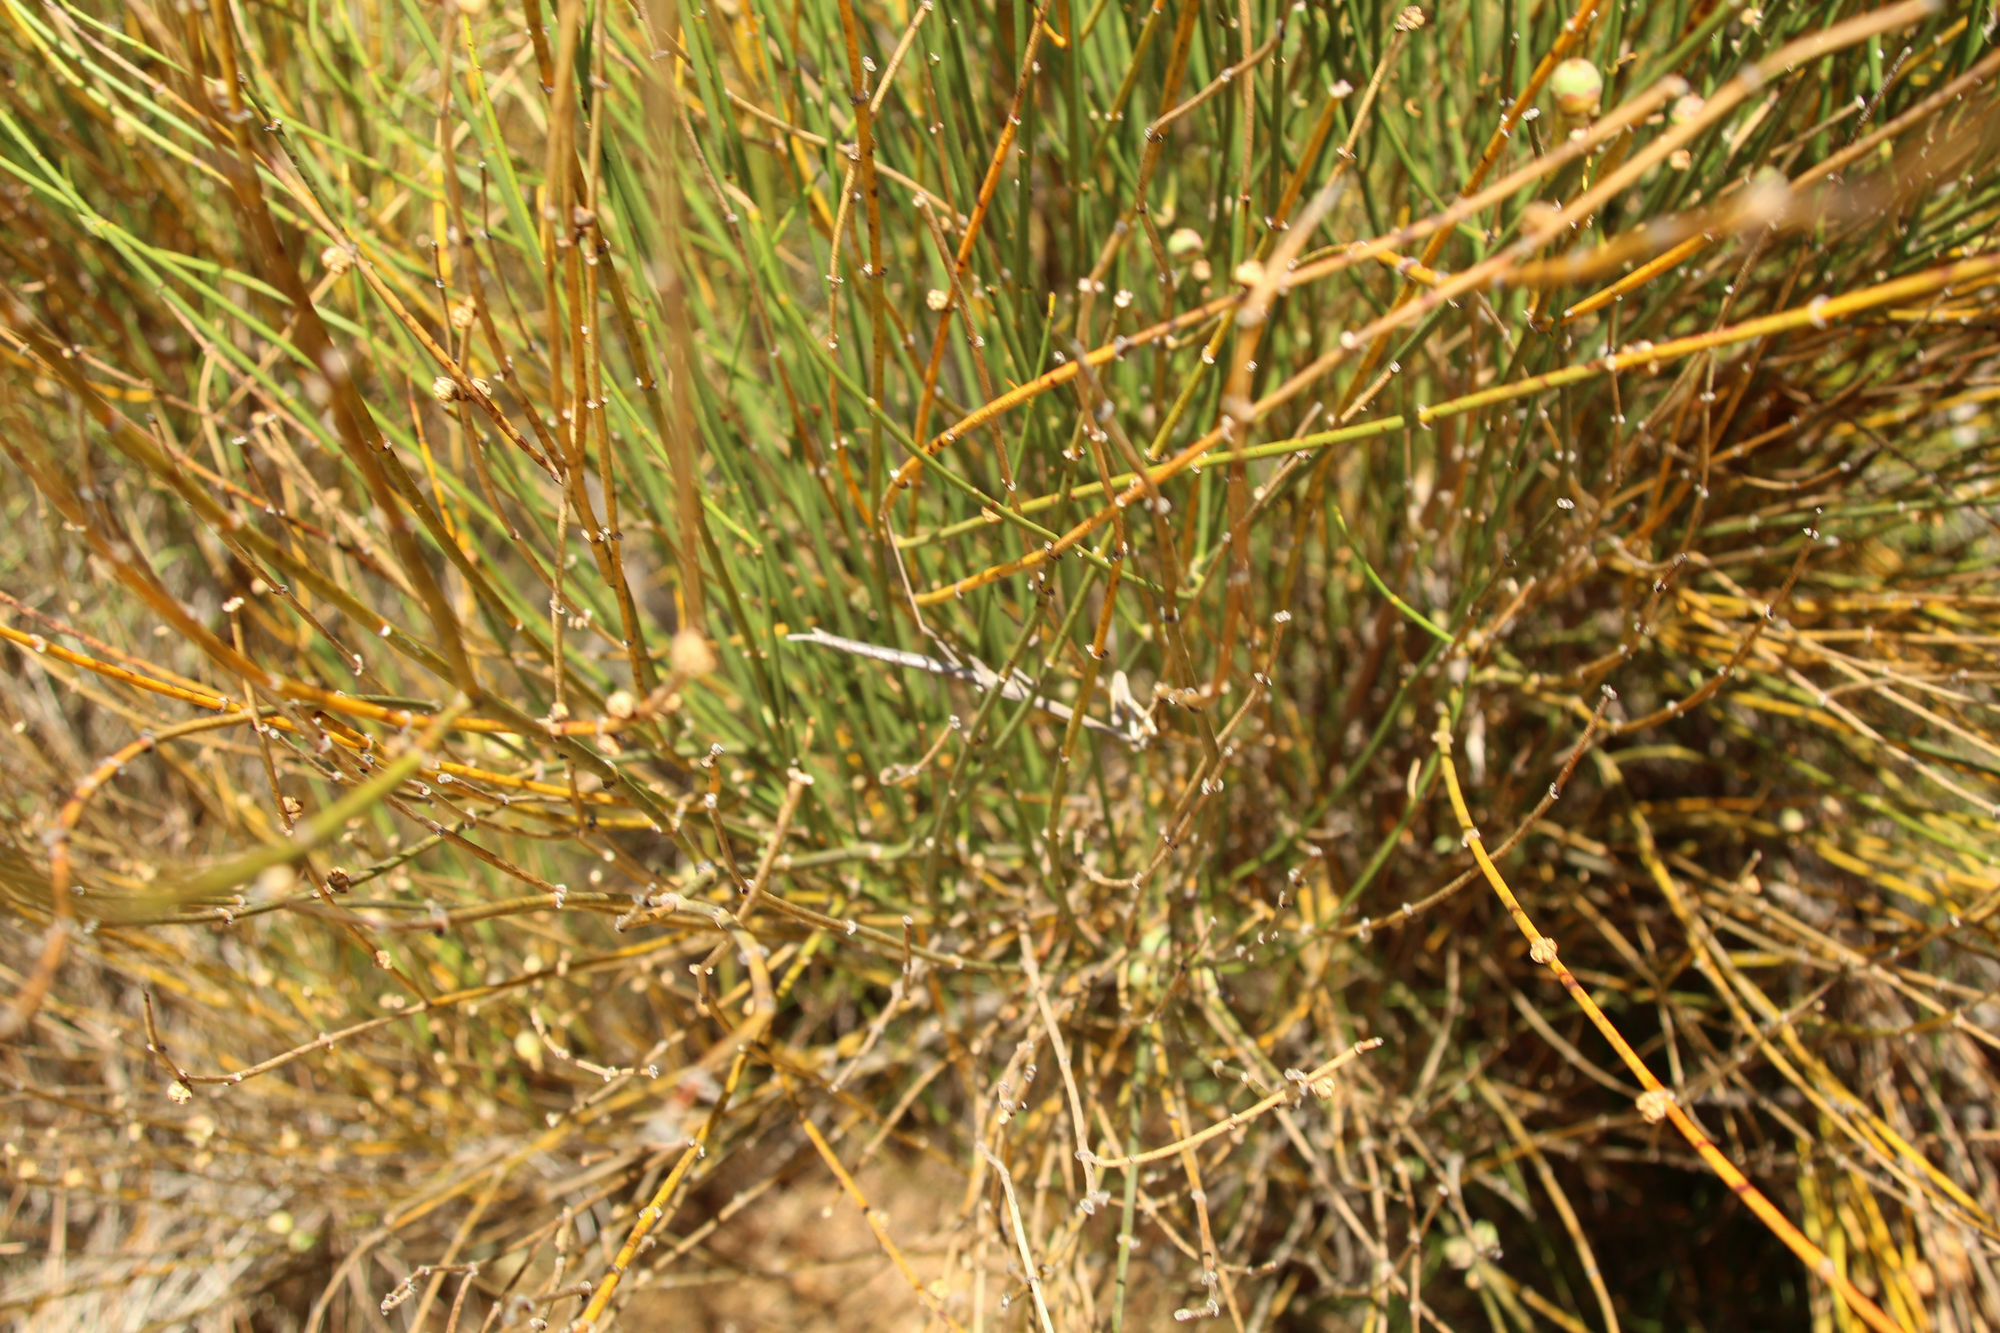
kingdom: Animalia
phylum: Arthropoda
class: Insecta
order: Mantodea
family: Mantidae
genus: Archimantis
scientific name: Archimantis quinquelobata
